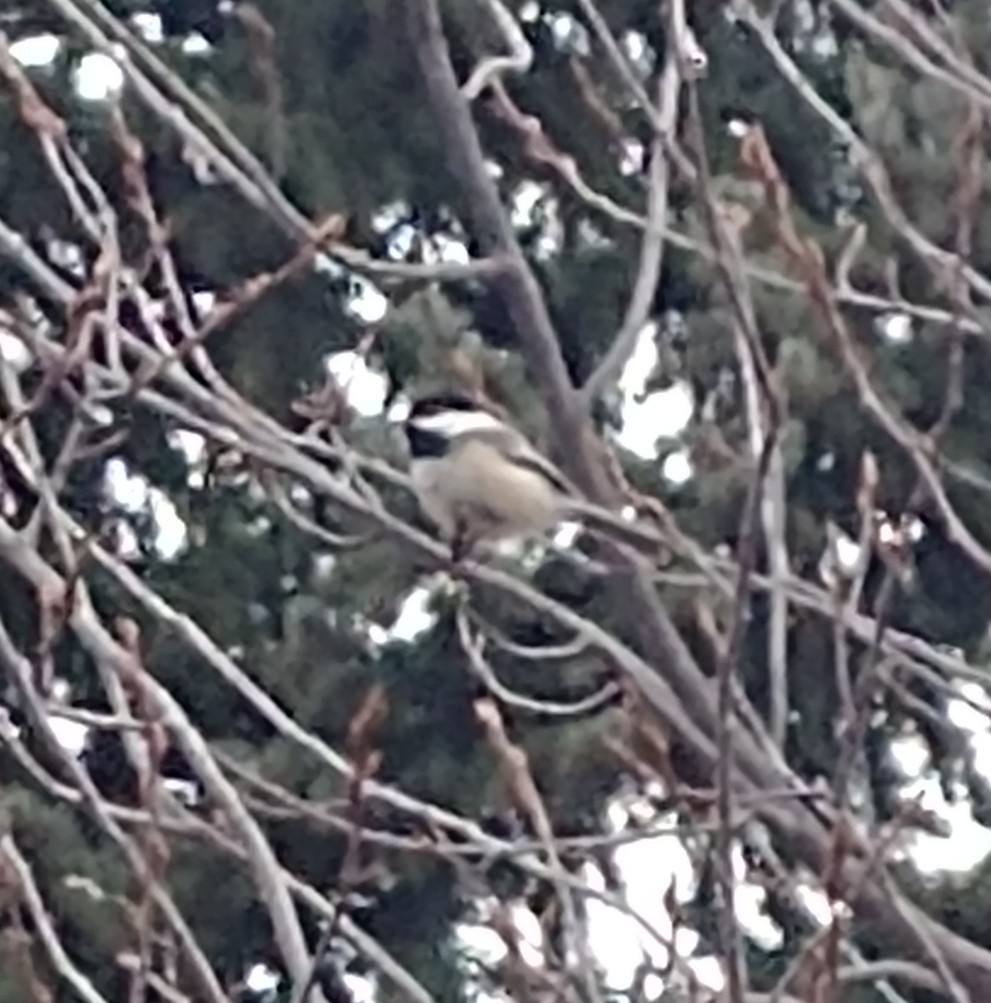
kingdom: Animalia
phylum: Chordata
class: Aves
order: Passeriformes
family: Paridae
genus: Poecile
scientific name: Poecile atricapillus
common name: Black-capped chickadee
